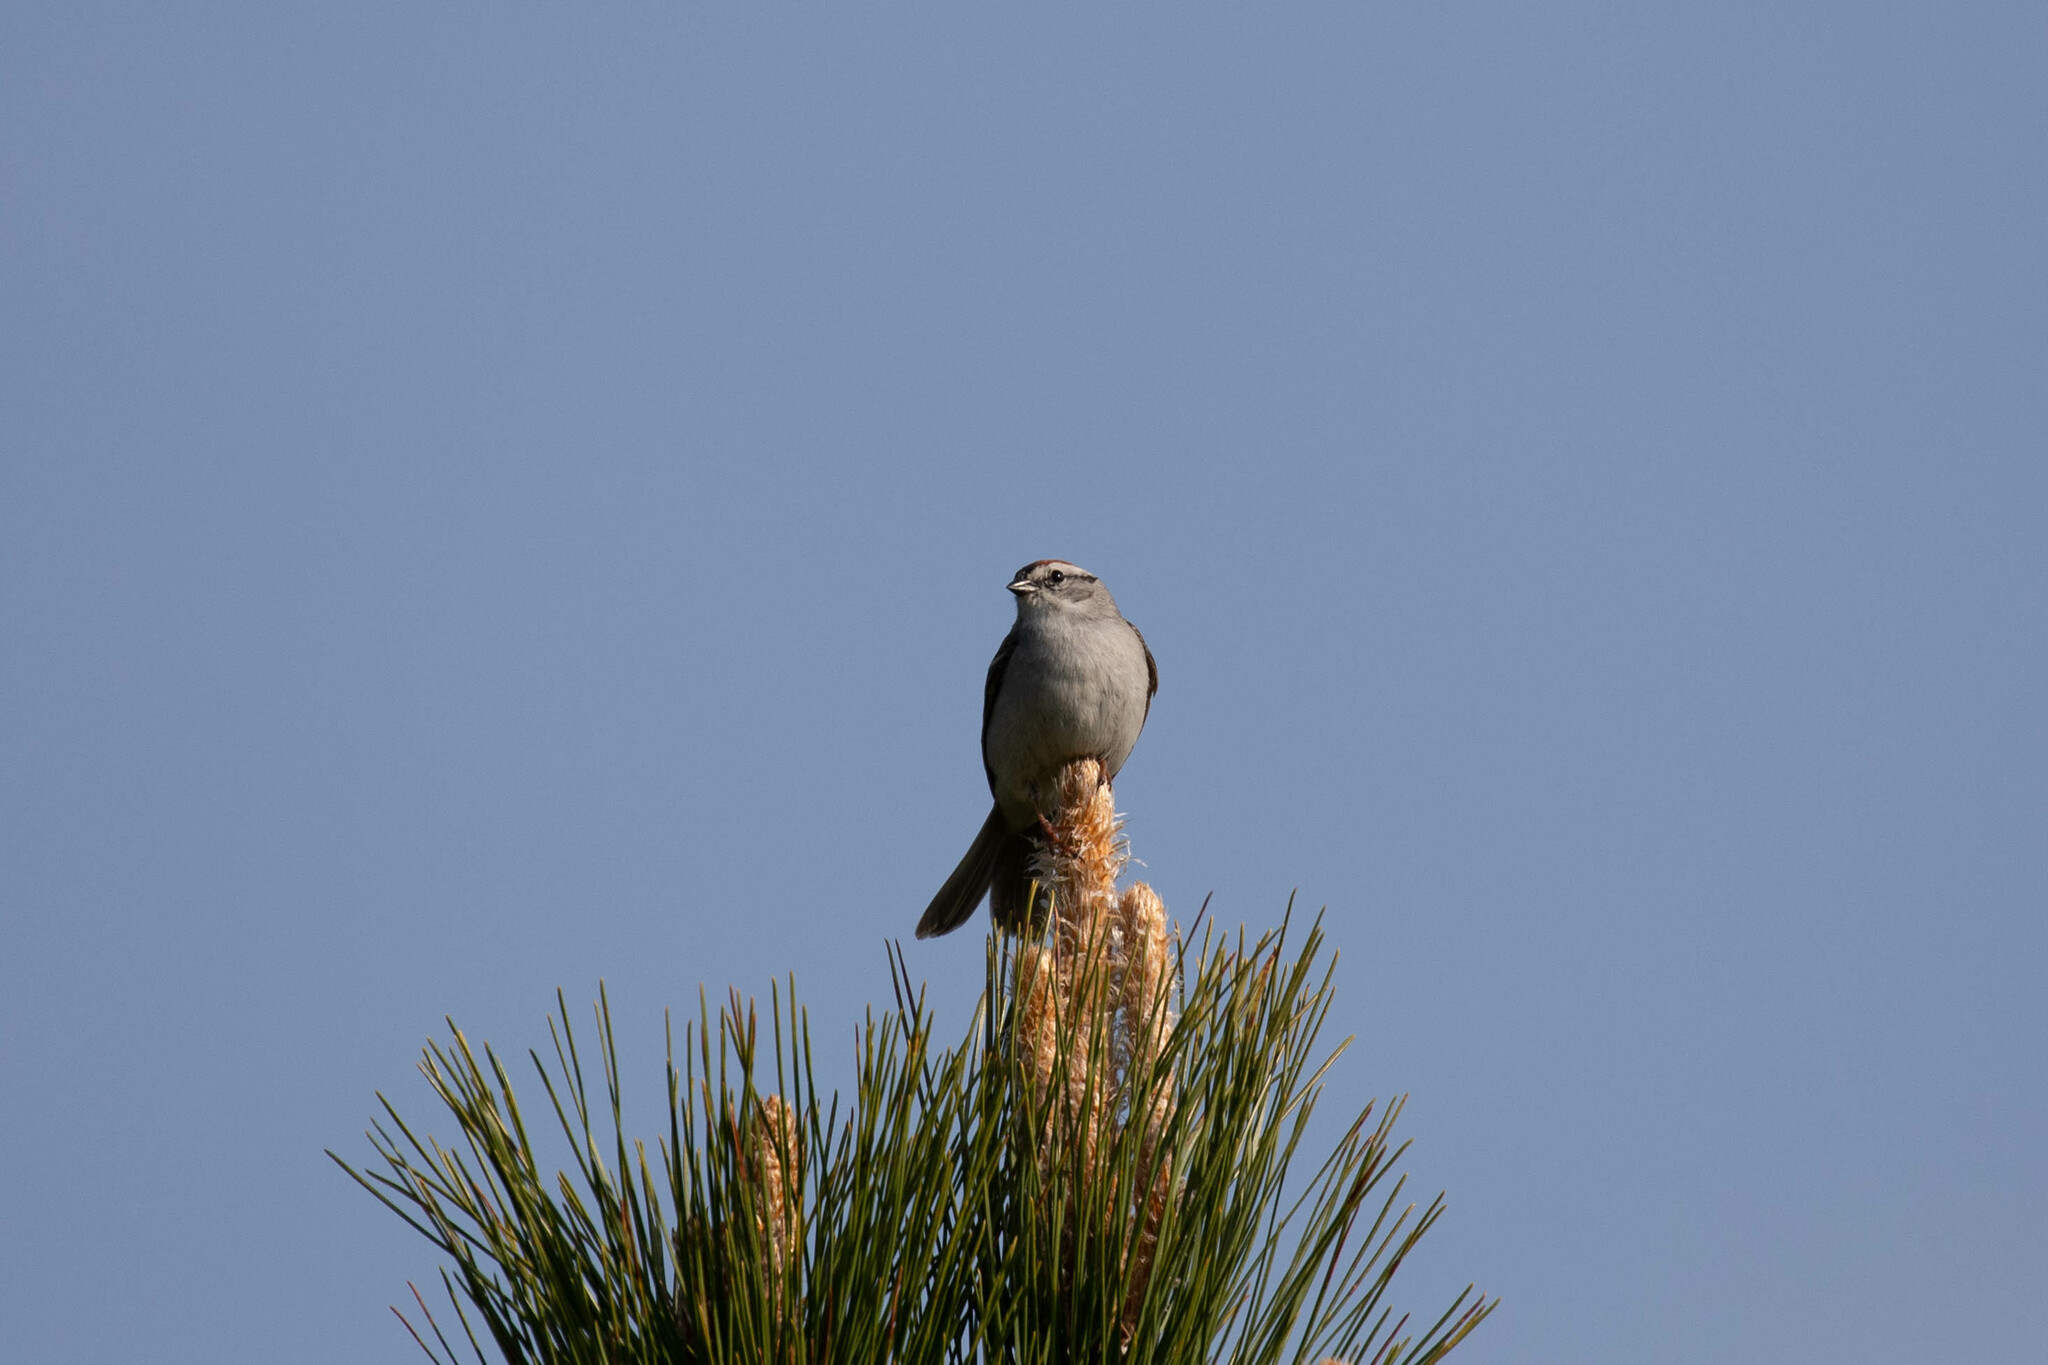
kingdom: Animalia
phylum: Chordata
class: Aves
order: Passeriformes
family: Passerellidae
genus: Spizella
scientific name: Spizella passerina
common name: Chipping sparrow
